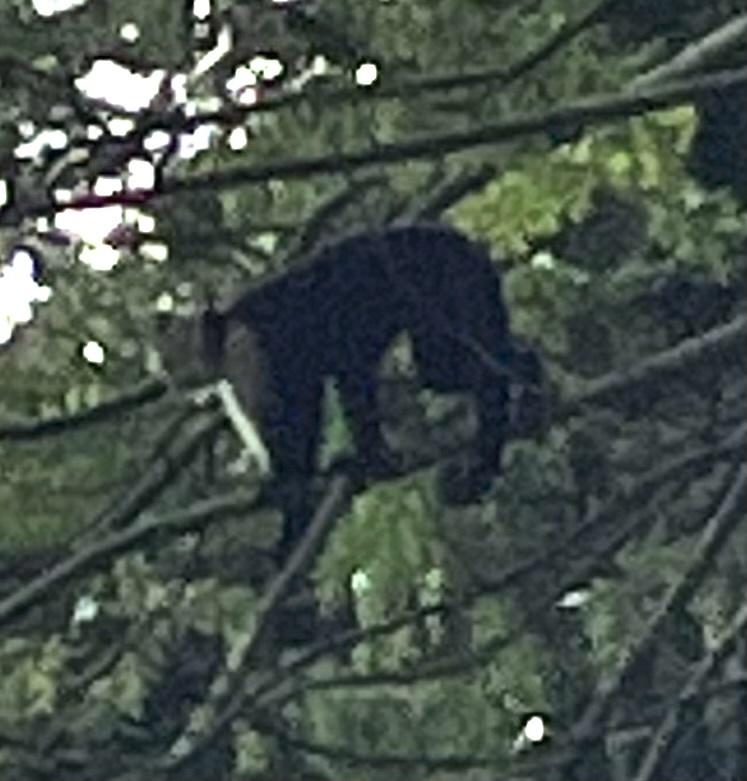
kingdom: Animalia
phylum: Chordata
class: Mammalia
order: Primates
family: Cebidae
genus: Cebus
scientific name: Cebus imitator
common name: Panamanian white-faced capuchin
